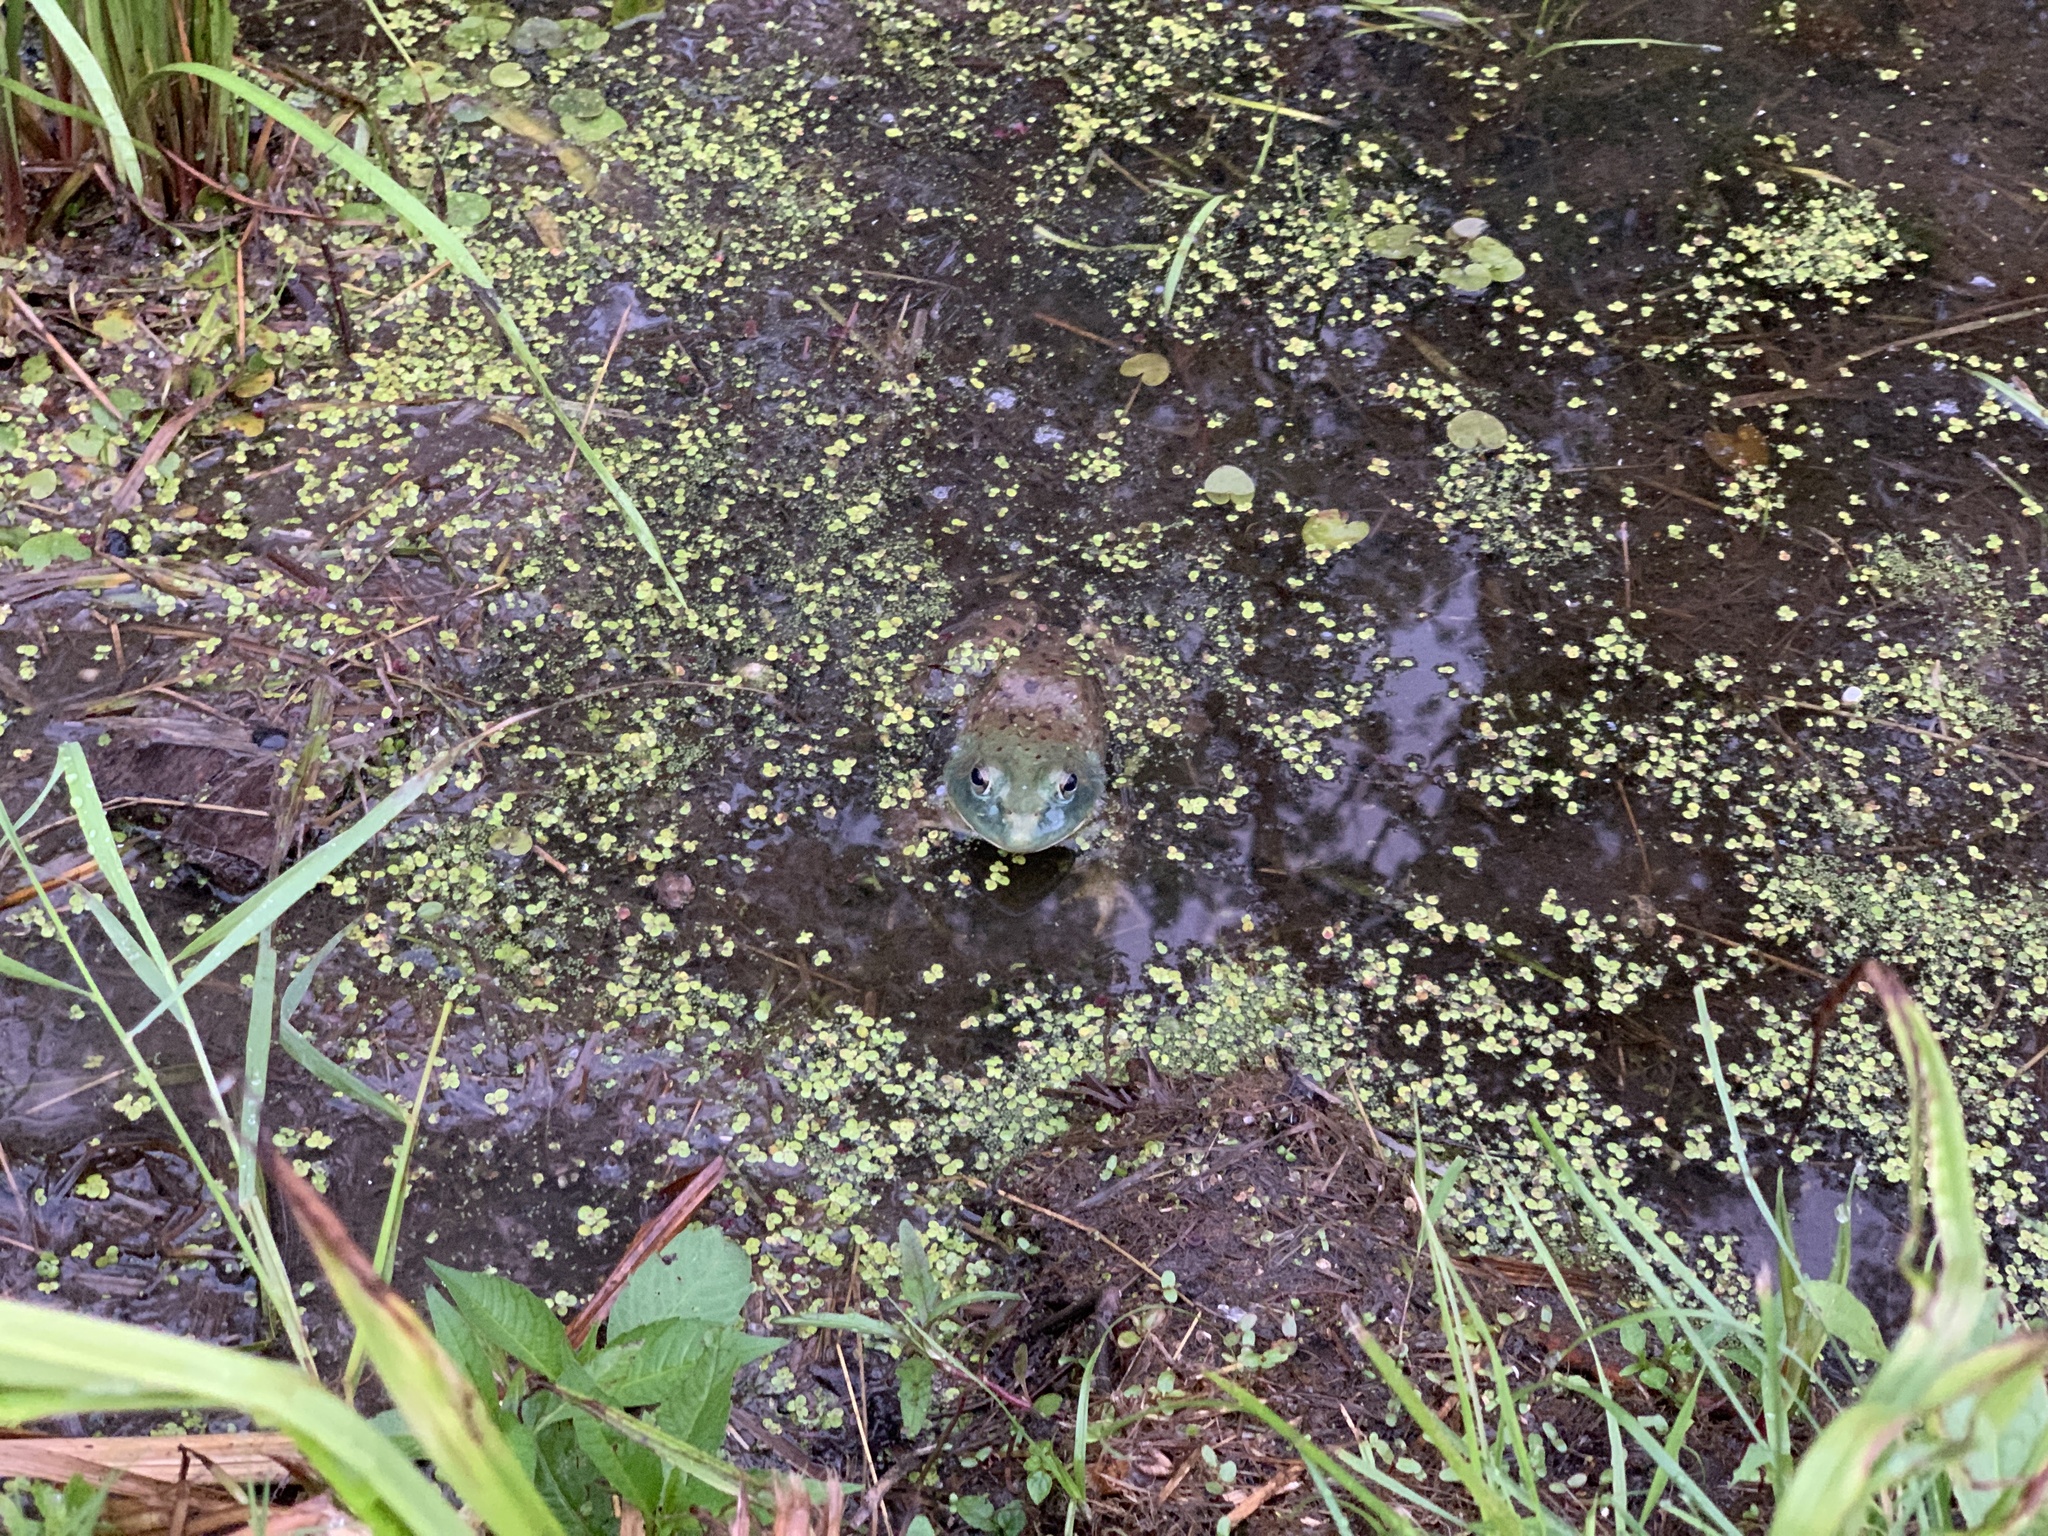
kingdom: Animalia
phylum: Chordata
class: Amphibia
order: Anura
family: Ranidae
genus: Lithobates
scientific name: Lithobates catesbeianus
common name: American bullfrog
